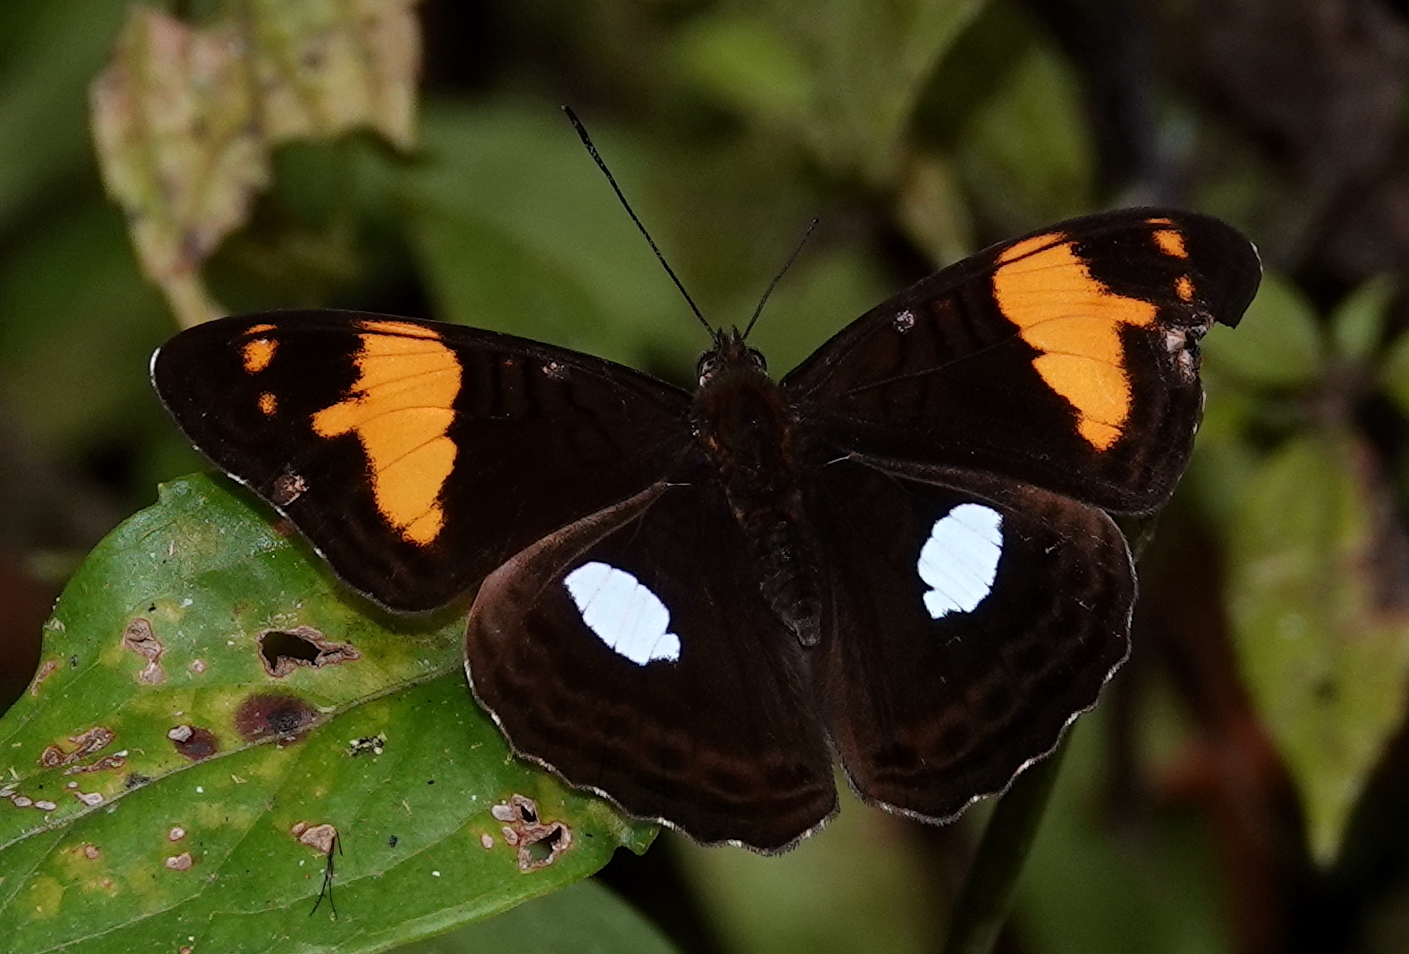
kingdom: Animalia
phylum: Arthropoda
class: Insecta
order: Lepidoptera
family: Nymphalidae
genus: Limenitis
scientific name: Limenitis justina
